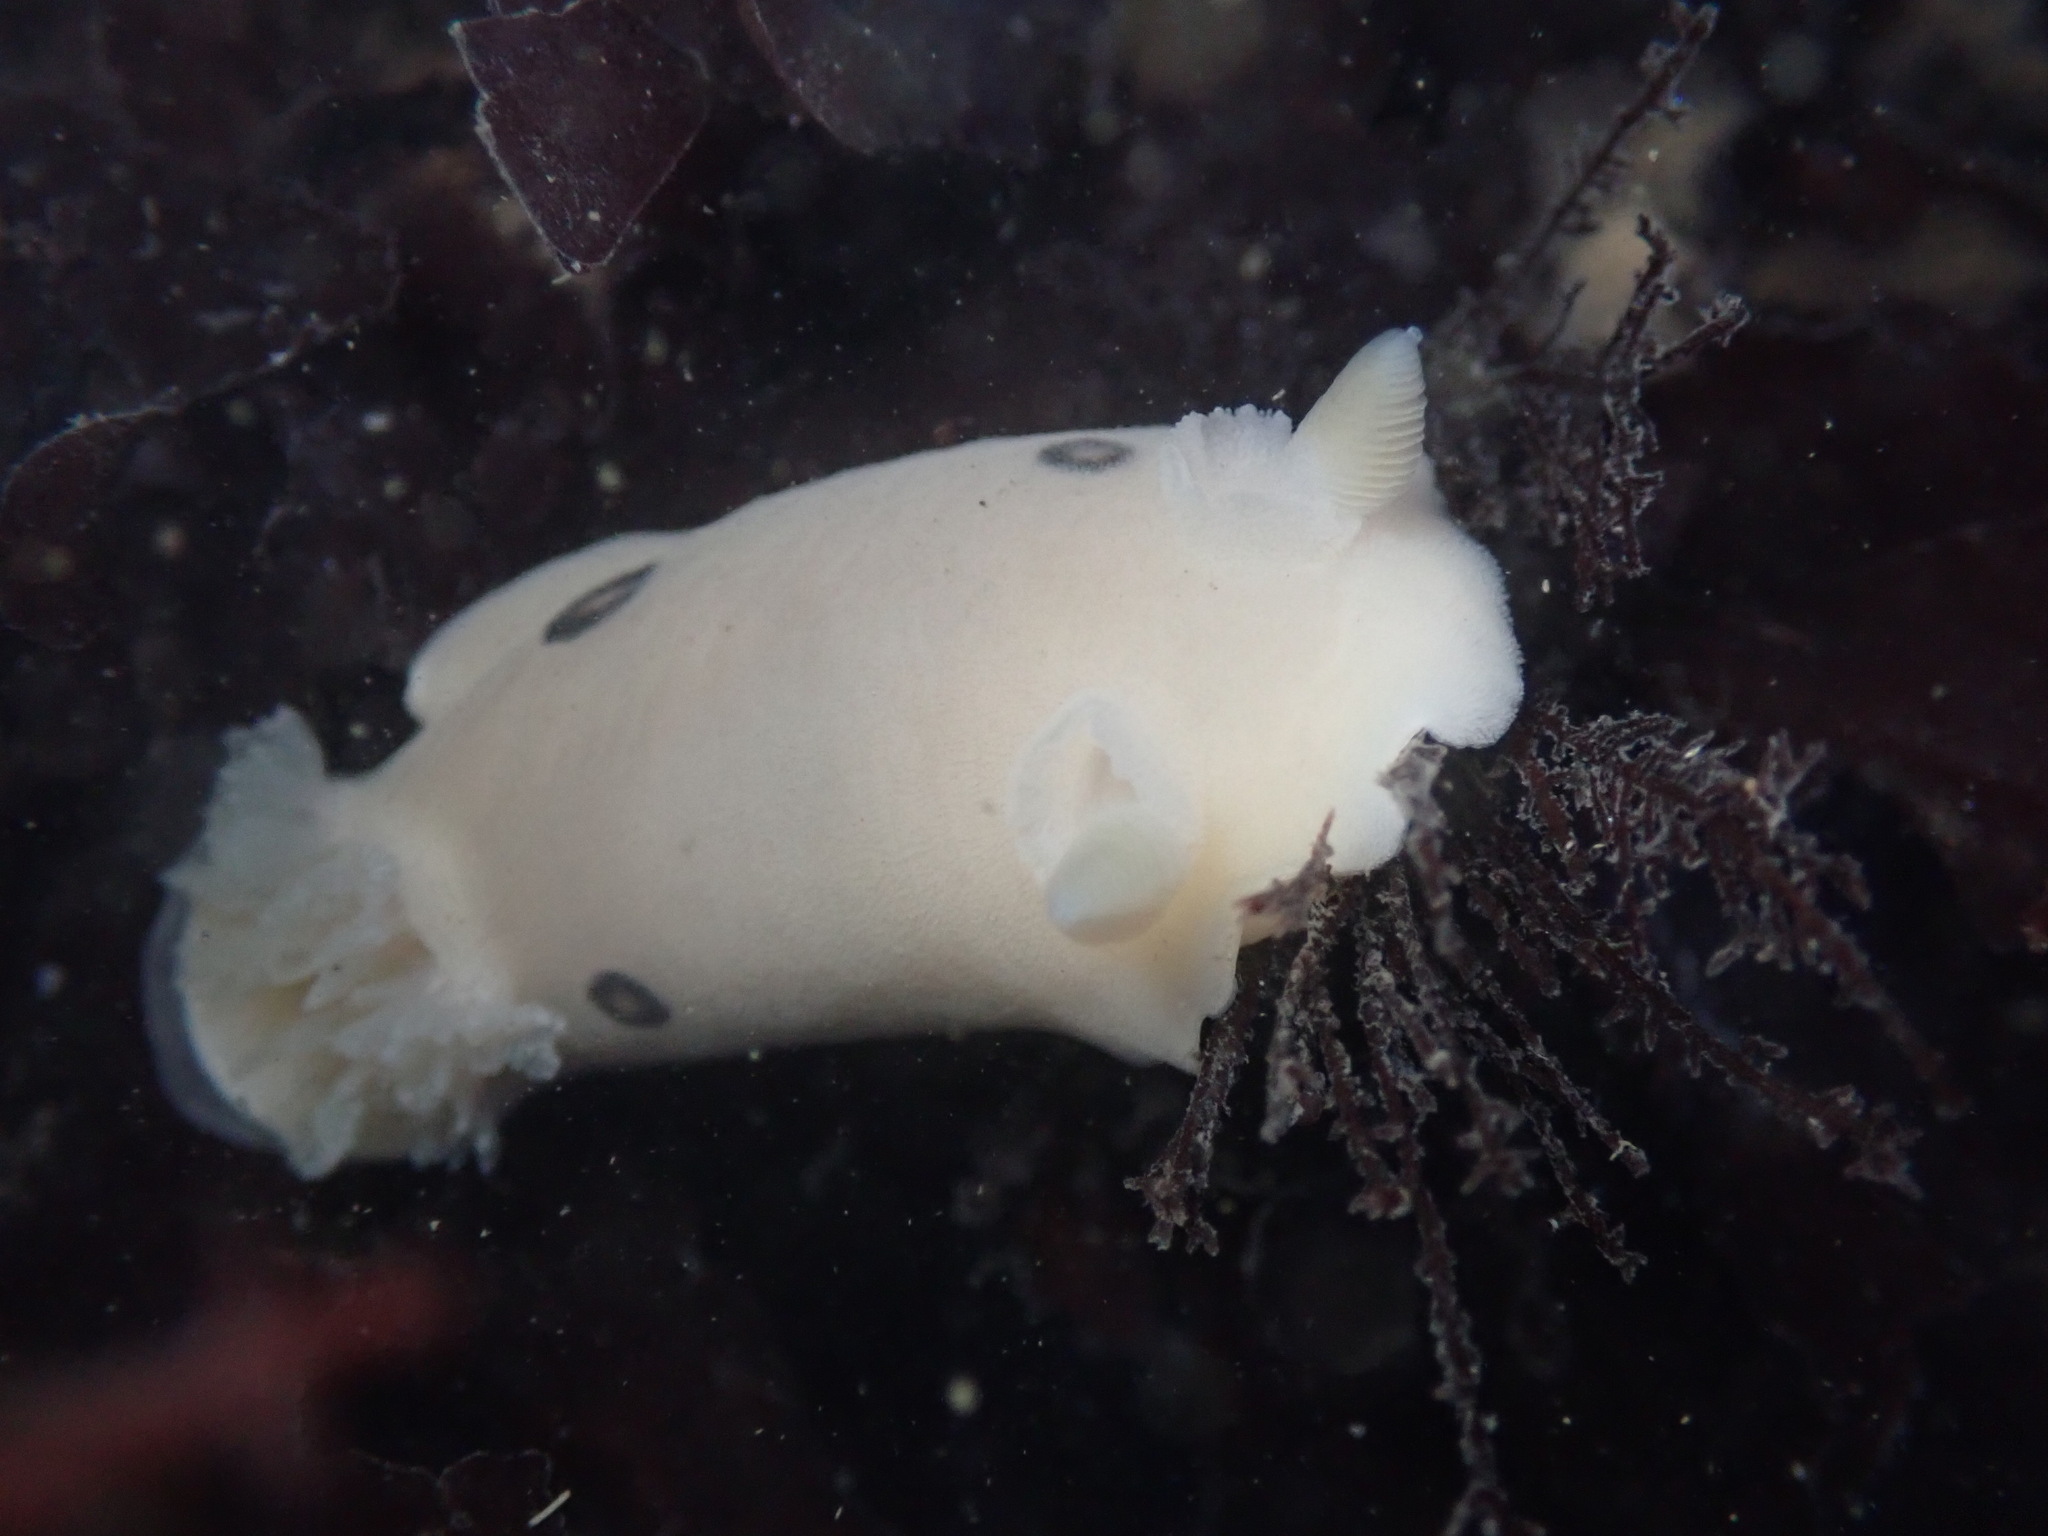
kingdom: Animalia
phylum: Mollusca
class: Gastropoda
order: Nudibranchia
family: Discodorididae
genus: Diaulula
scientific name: Diaulula sandiegensis
